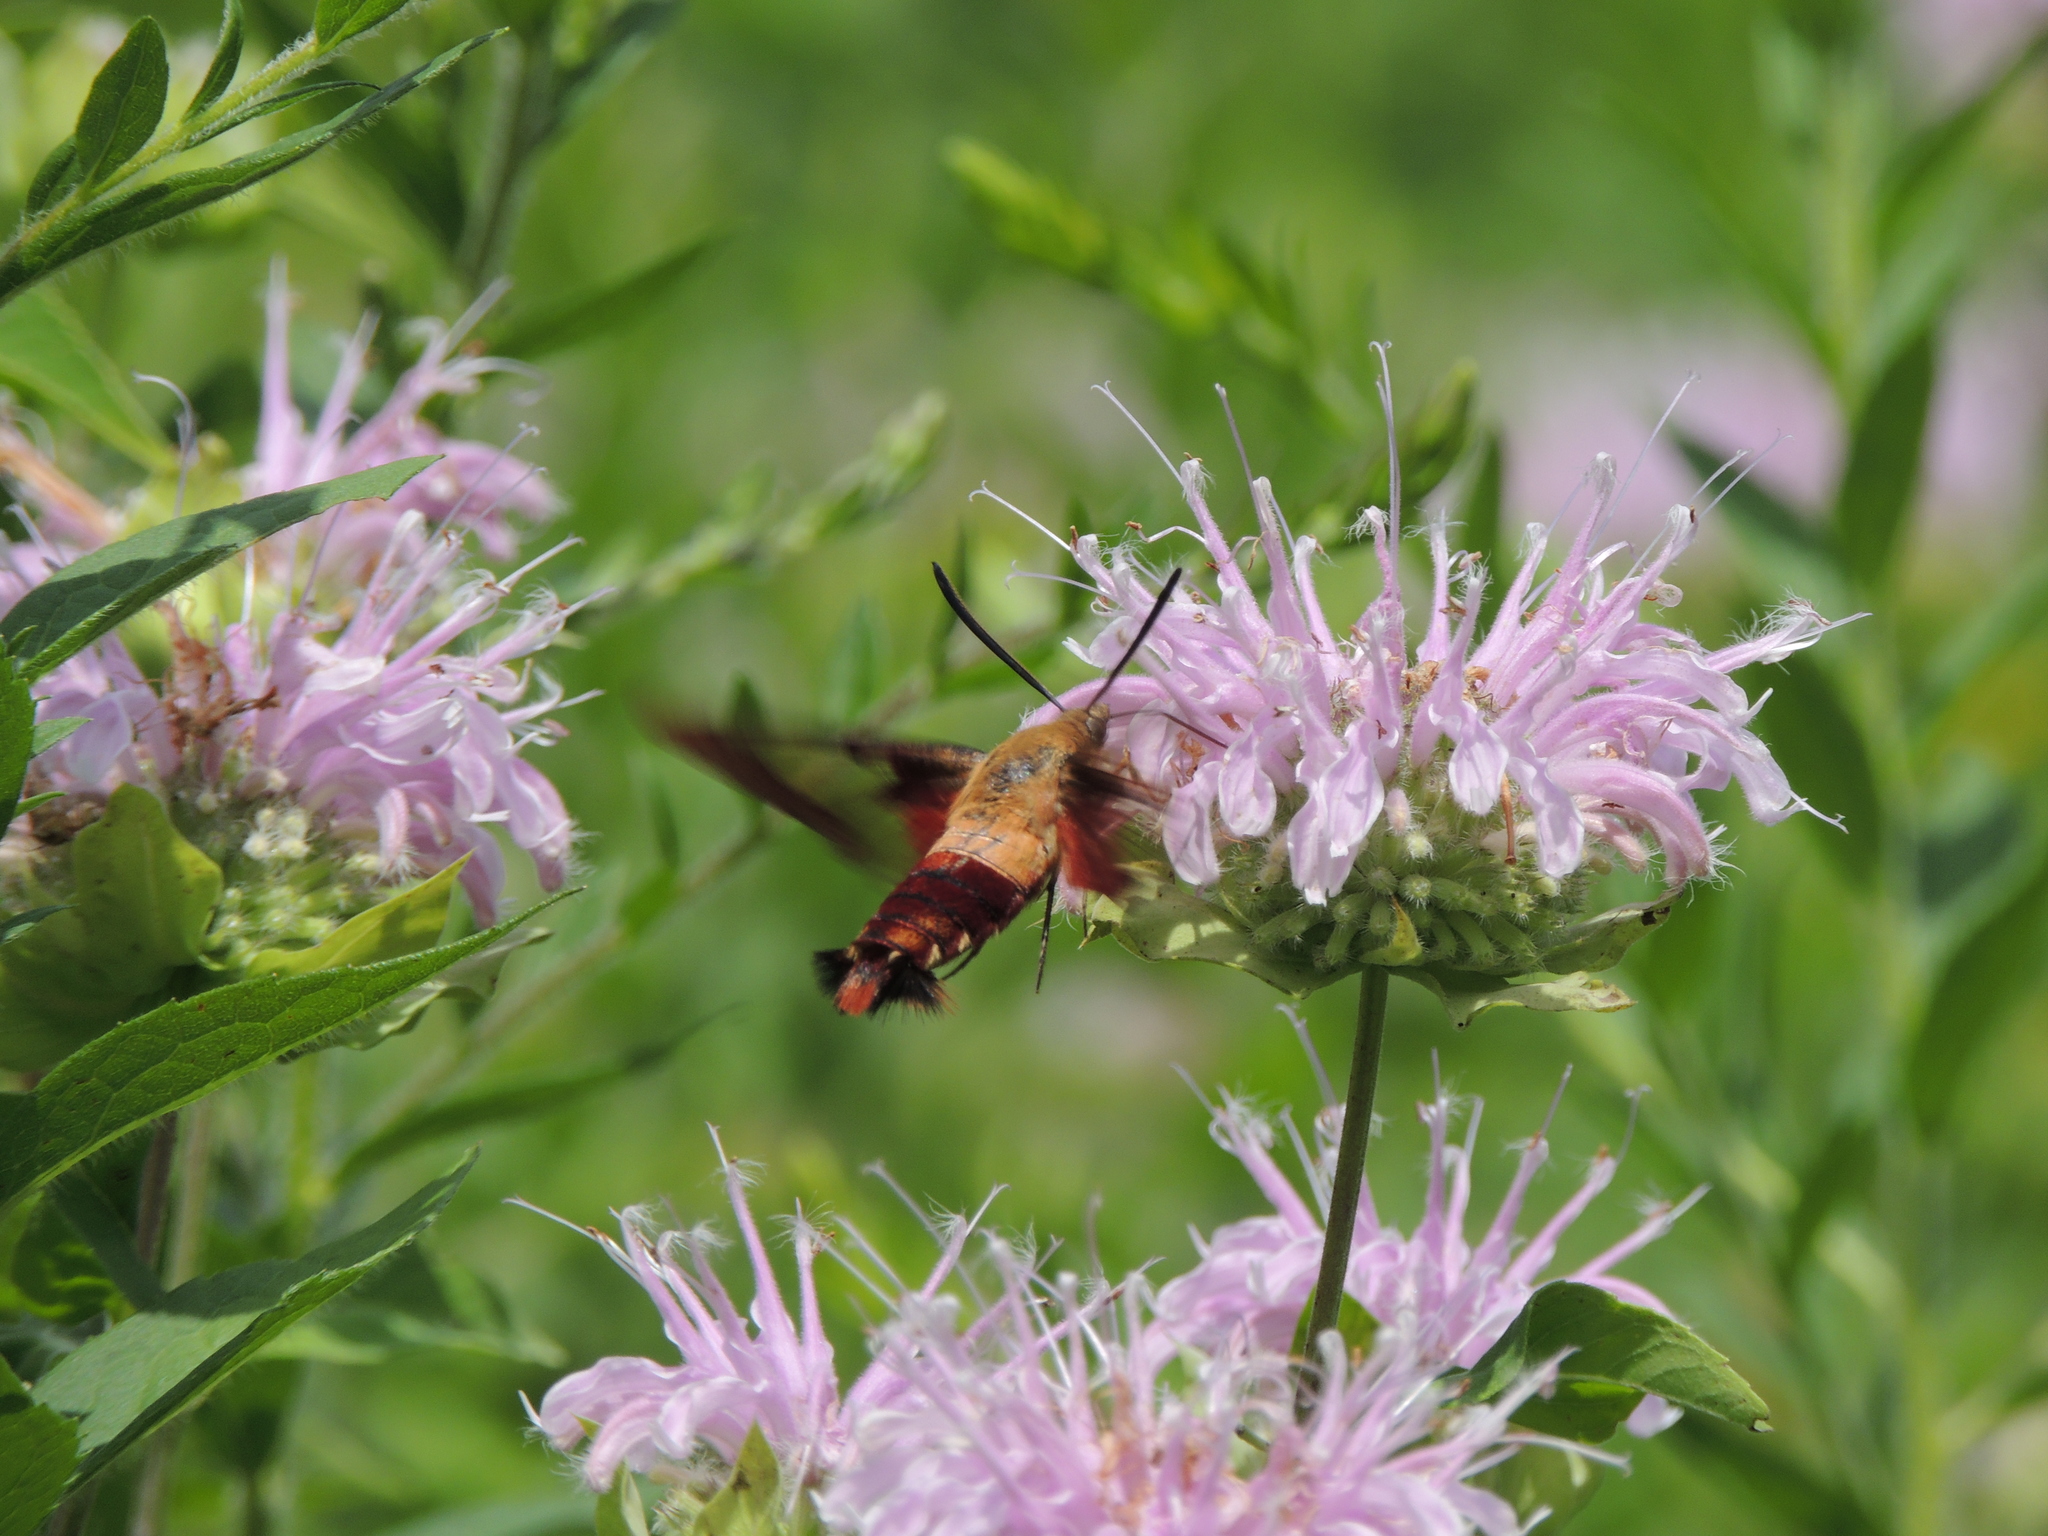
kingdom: Animalia
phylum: Arthropoda
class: Insecta
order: Lepidoptera
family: Sphingidae
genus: Hemaris
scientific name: Hemaris thysbe
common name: Common clear-wing
